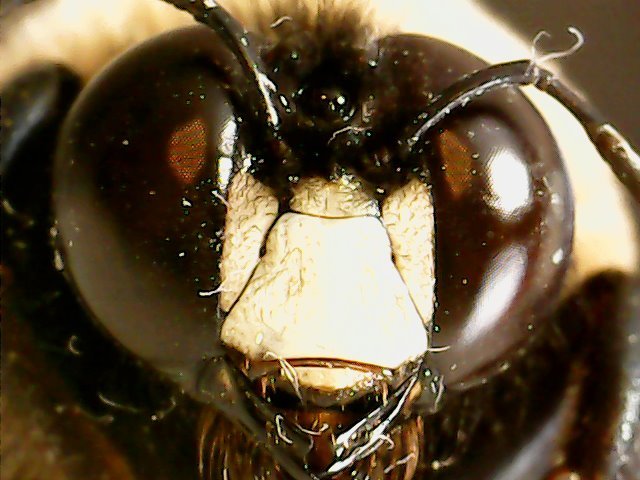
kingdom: Animalia
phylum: Arthropoda
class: Insecta
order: Hymenoptera
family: Apidae
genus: Xylocopa
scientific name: Xylocopa virginica
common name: Carpenter bee
